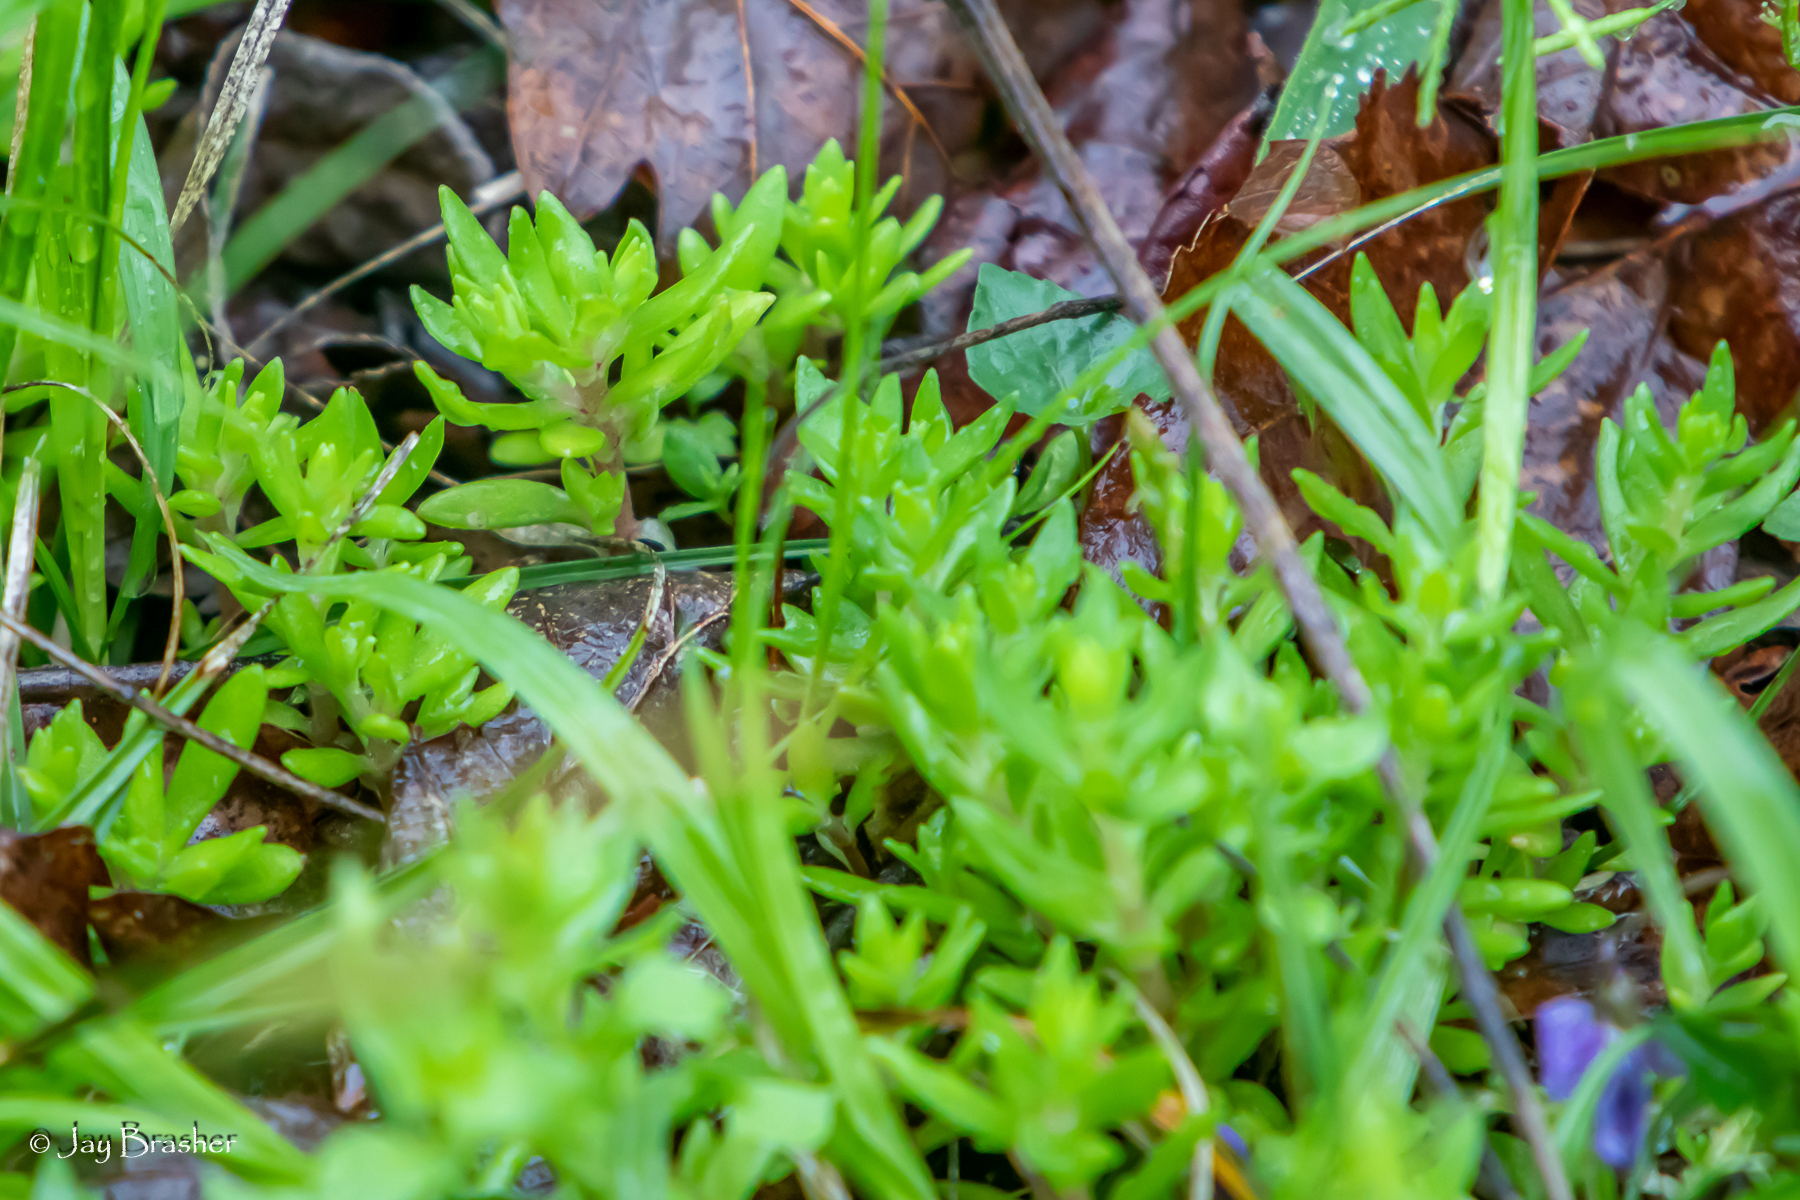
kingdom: Plantae
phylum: Tracheophyta
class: Magnoliopsida
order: Saxifragales
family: Crassulaceae
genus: Sedum
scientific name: Sedum sarmentosum
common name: Stringy stonecrop
